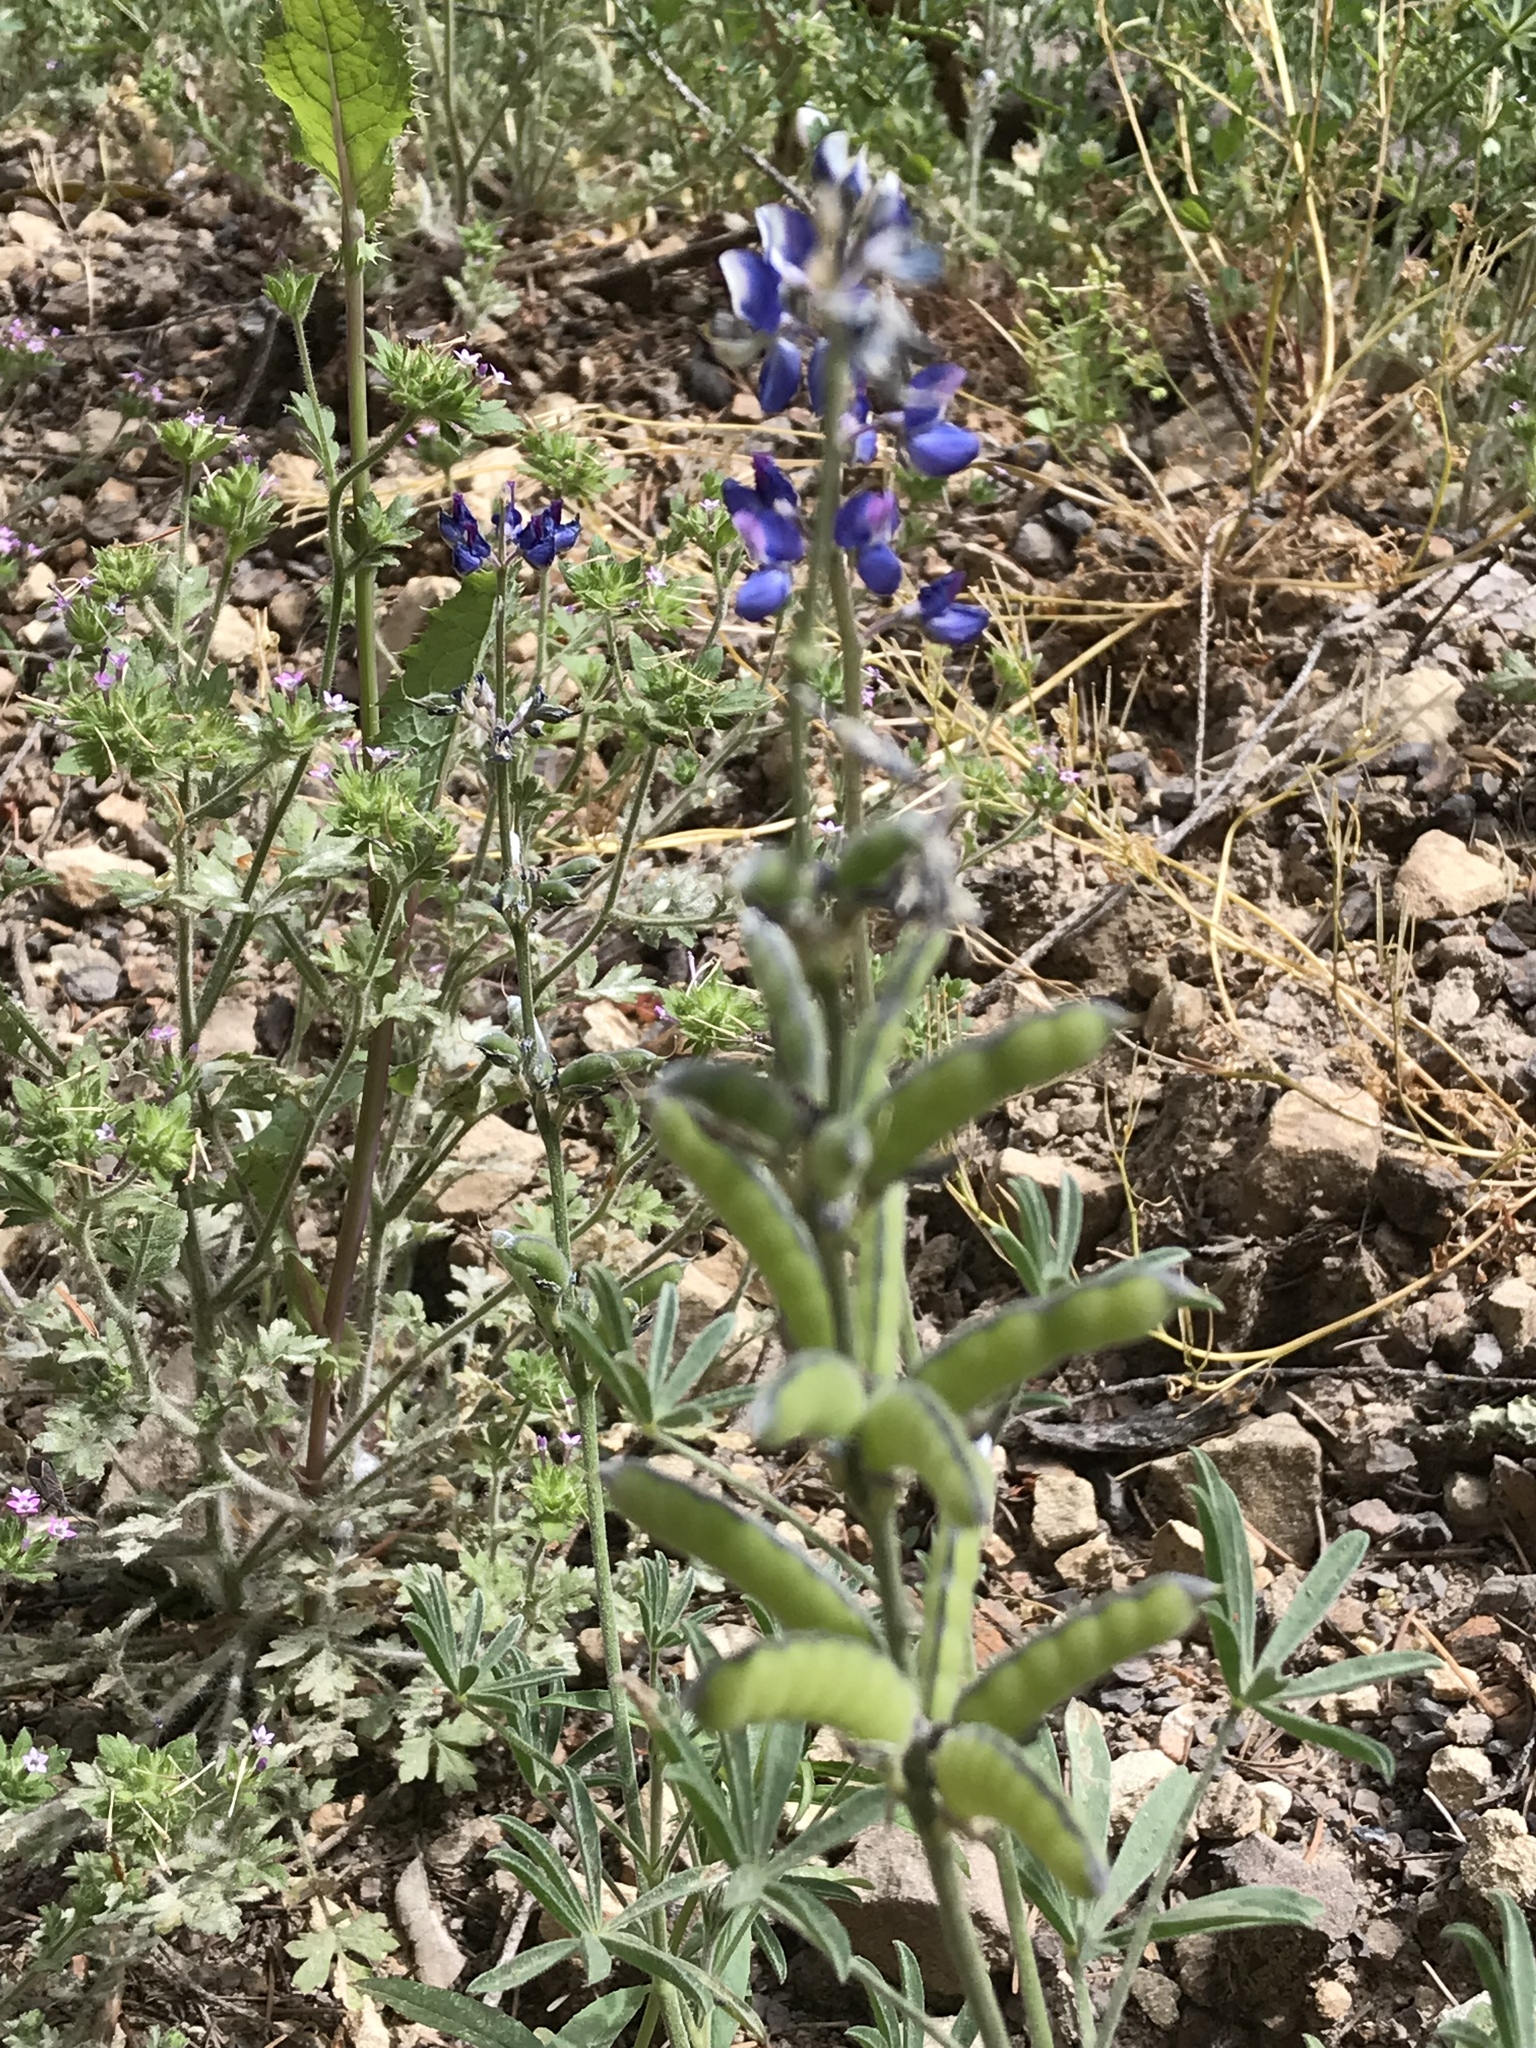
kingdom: Plantae
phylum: Tracheophyta
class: Magnoliopsida
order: Fabales
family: Fabaceae
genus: Lupinus
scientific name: Lupinus bicolor
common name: Miniature lupine
